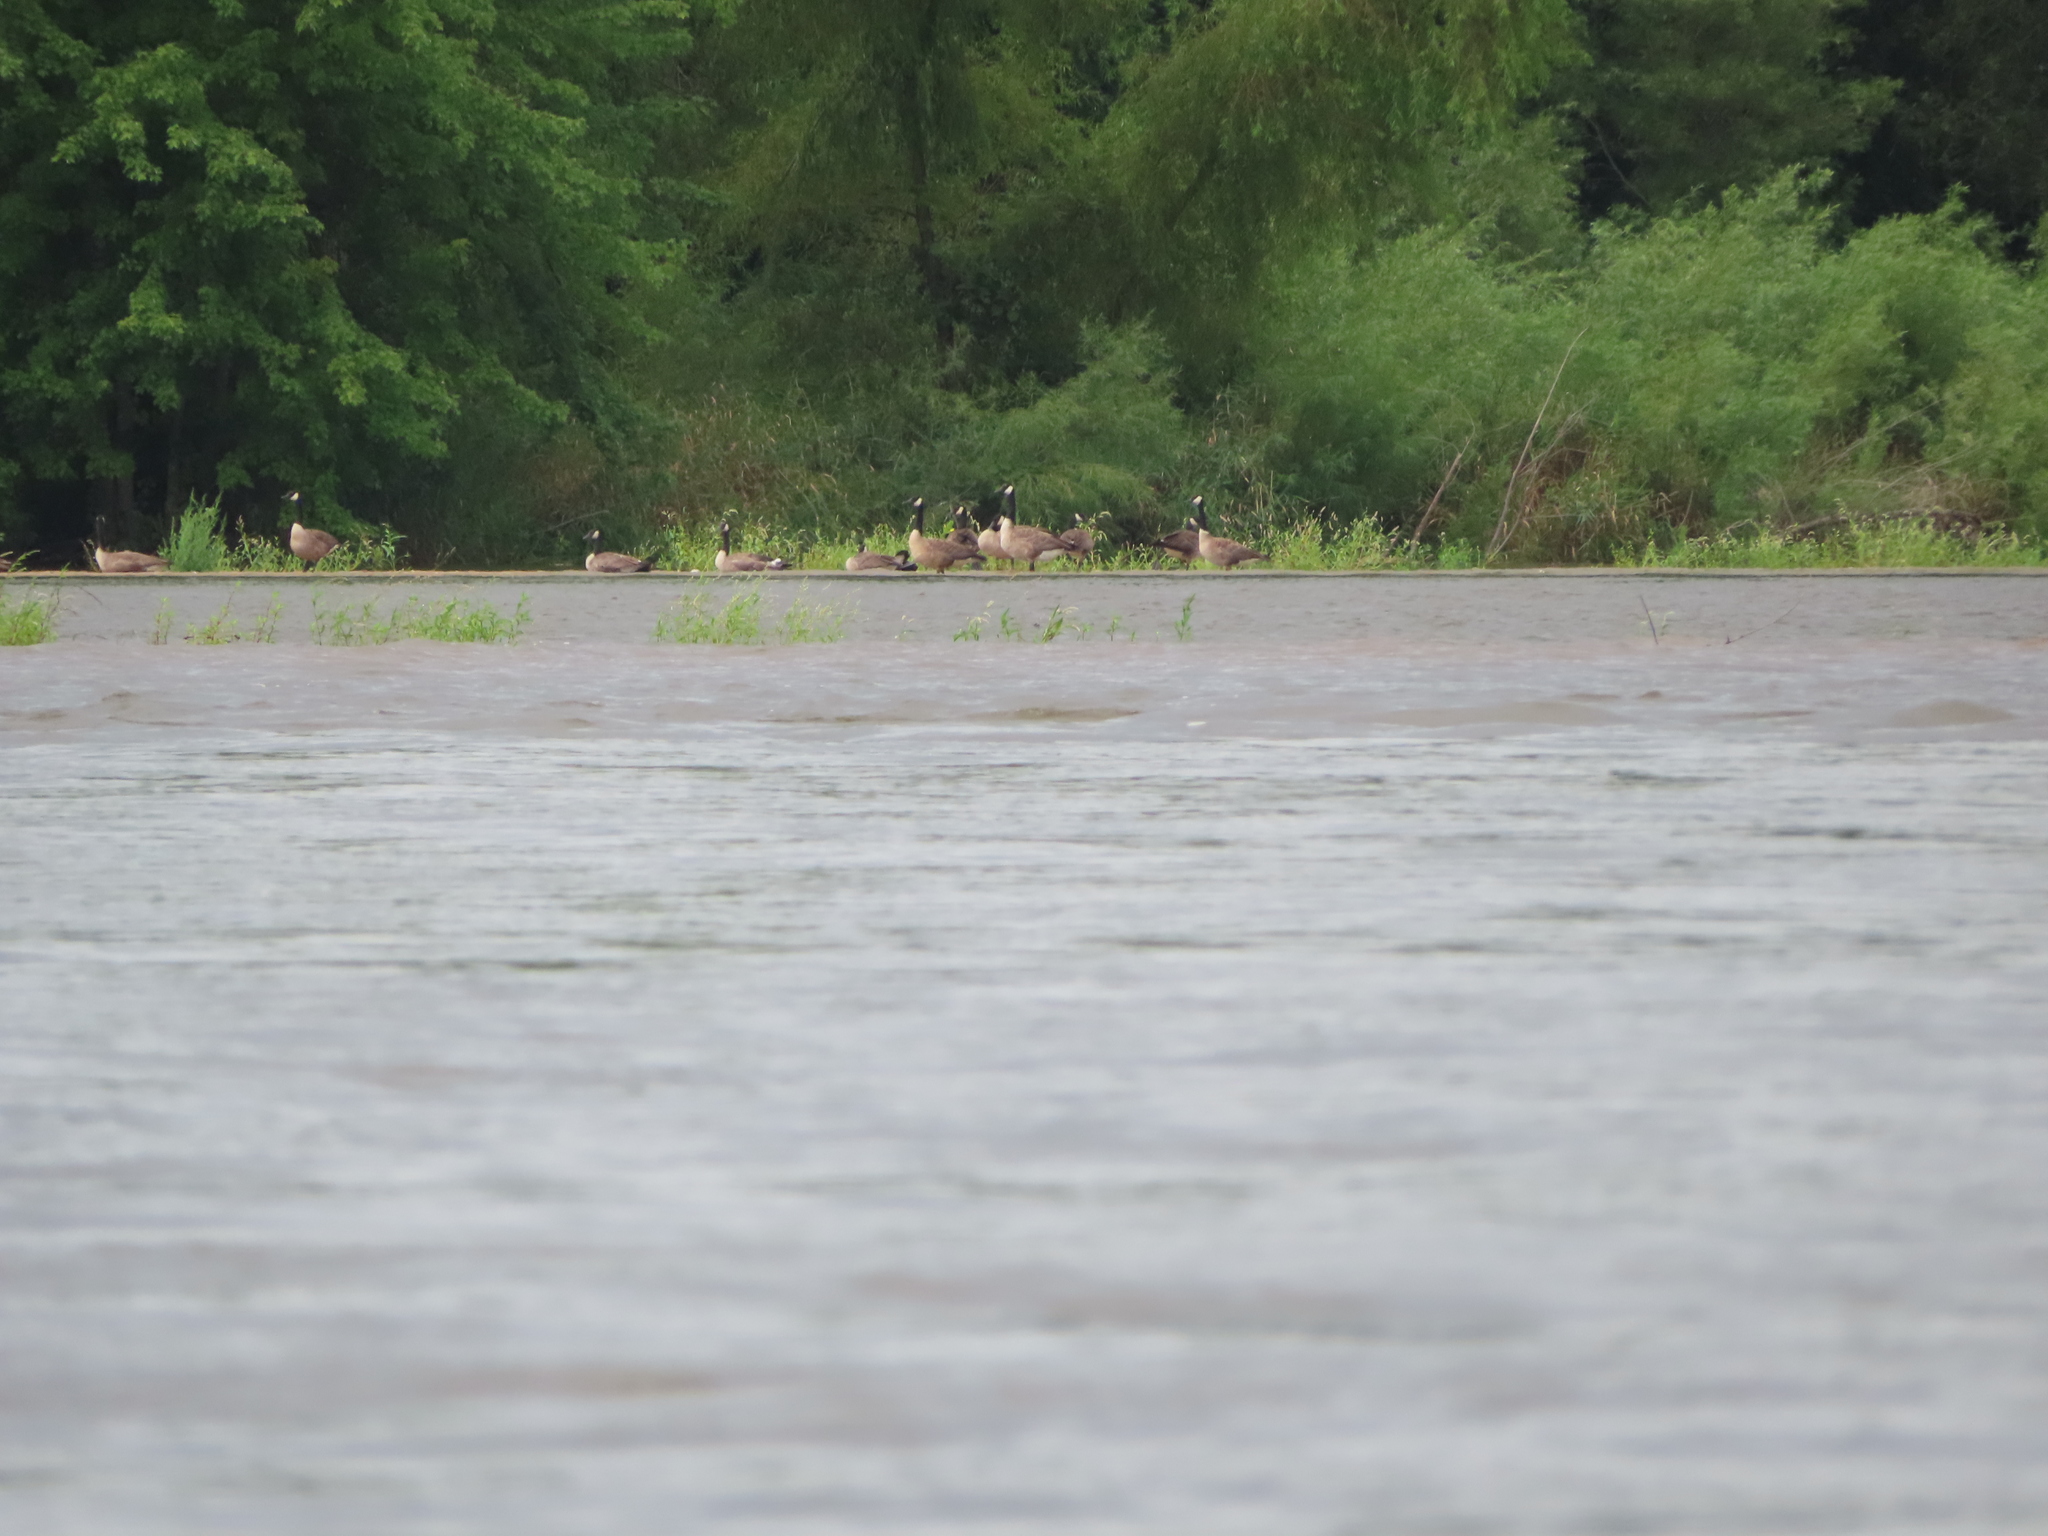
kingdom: Animalia
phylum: Chordata
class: Aves
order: Anseriformes
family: Anatidae
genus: Branta
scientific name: Branta canadensis
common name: Canada goose
